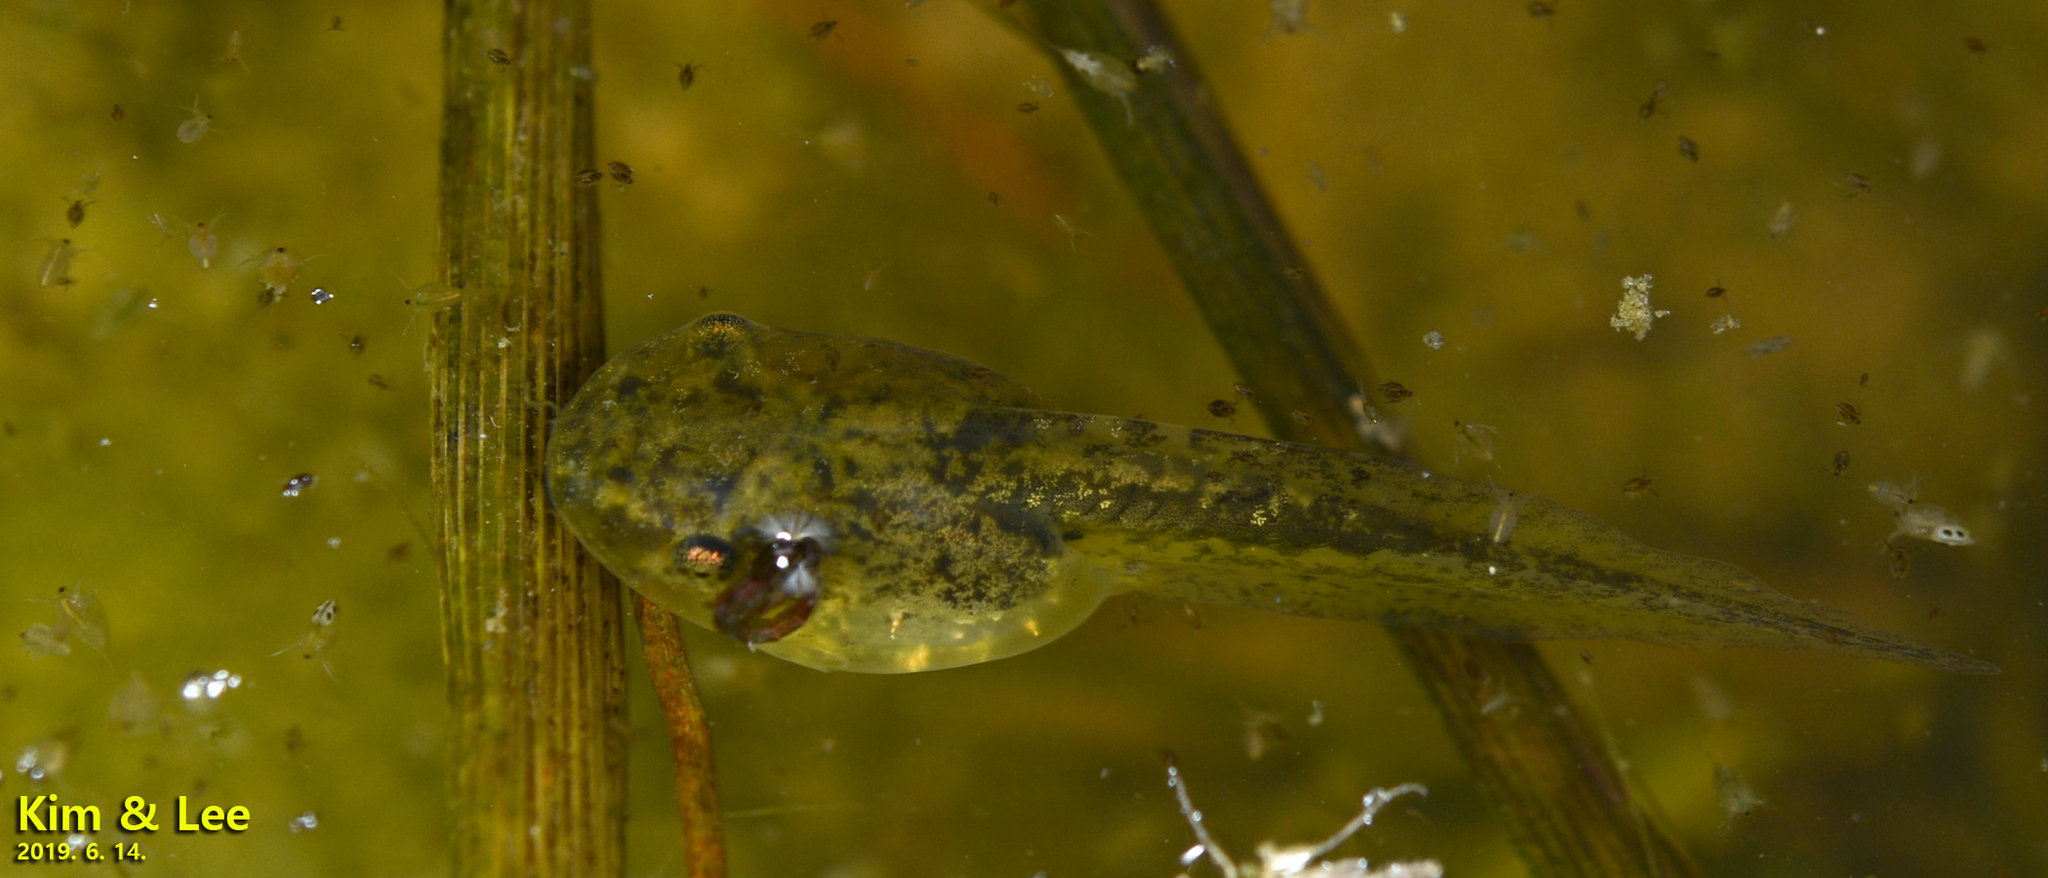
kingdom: Animalia
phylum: Chordata
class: Amphibia
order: Anura
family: Hylidae
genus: Dryophytes
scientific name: Dryophytes japonicus
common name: Japanese treefrog
